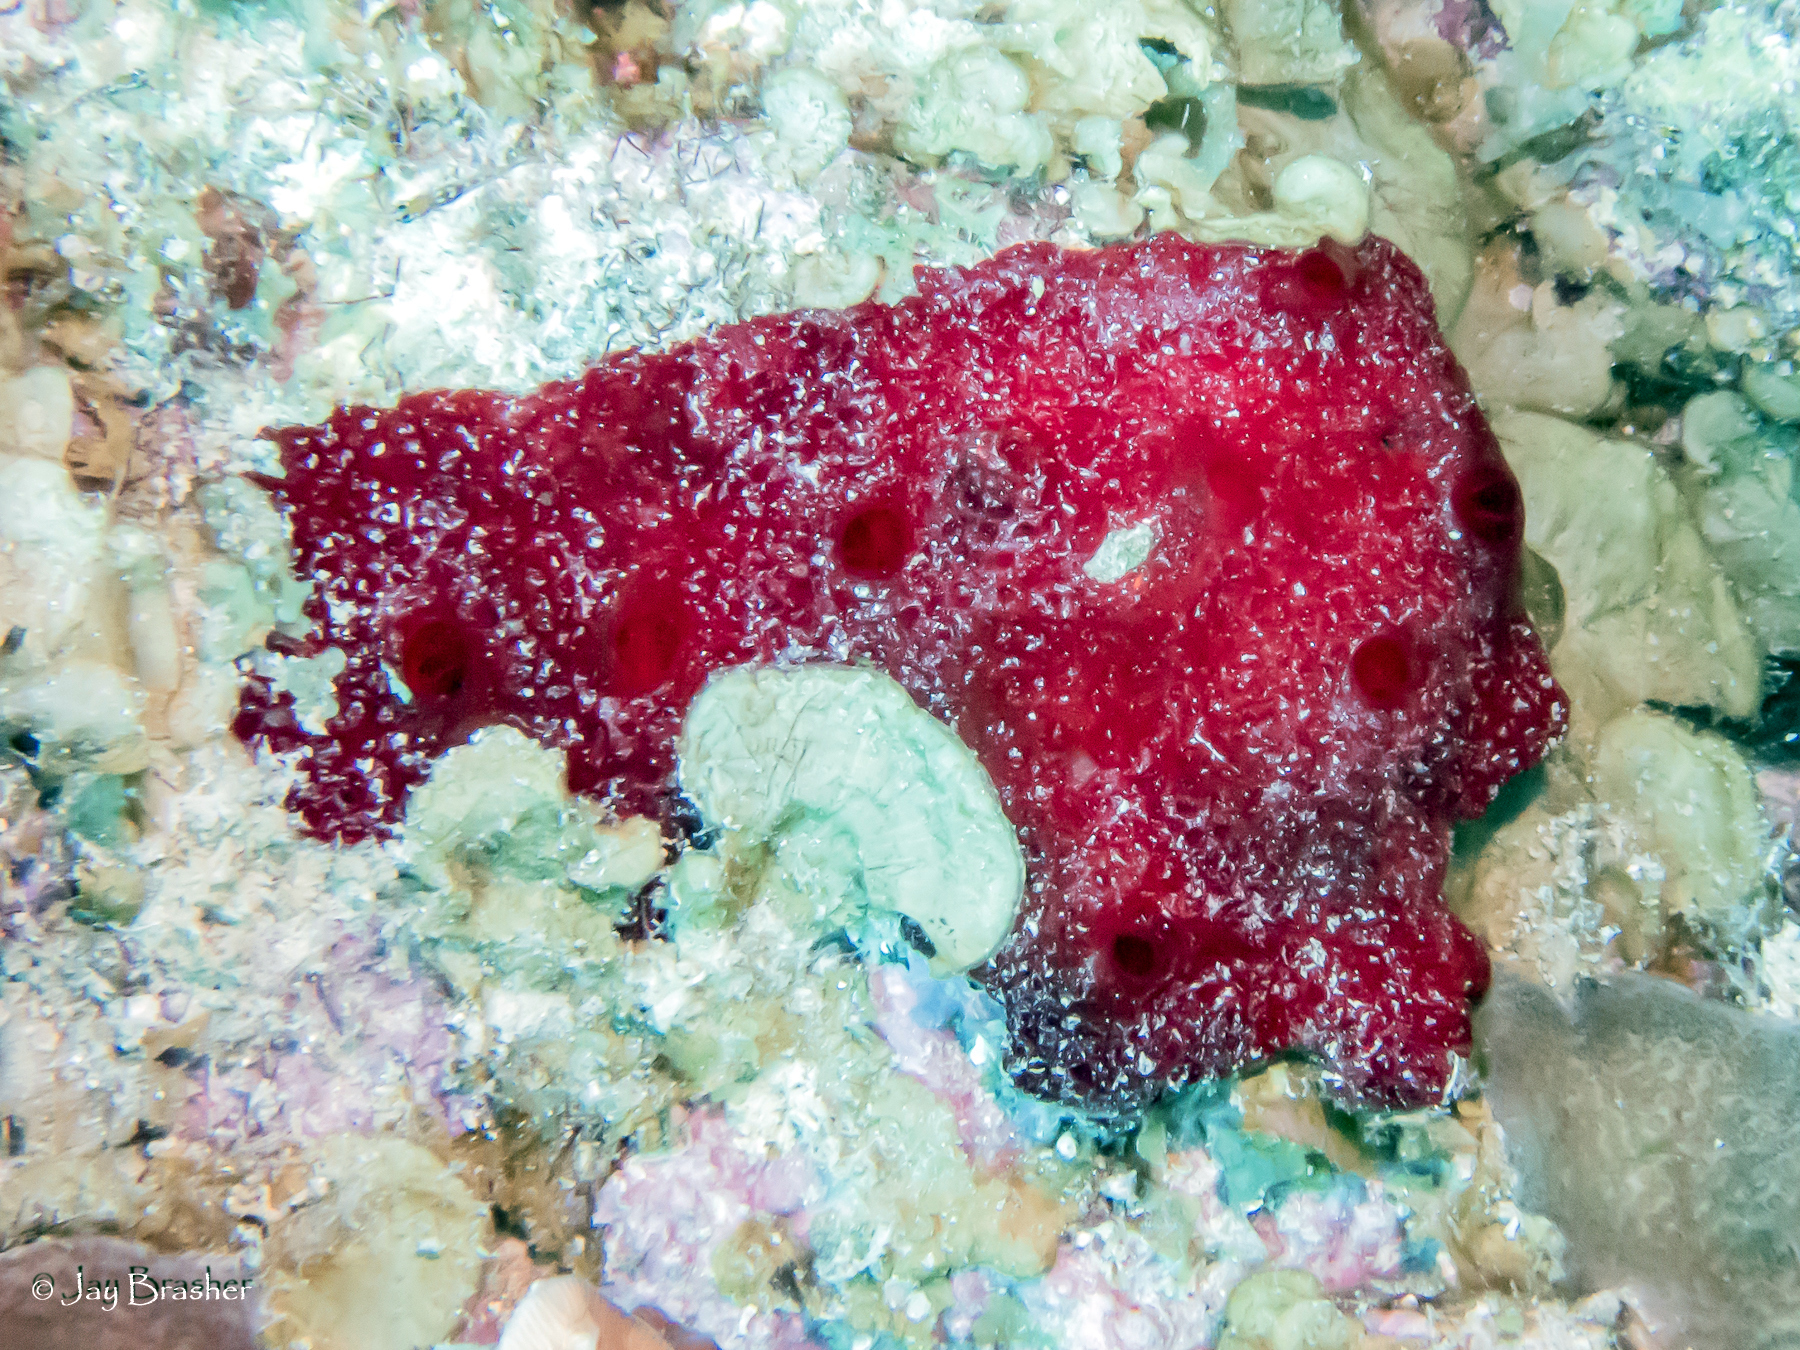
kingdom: Animalia
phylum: Porifera
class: Demospongiae
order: Poecilosclerida
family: Hymedesmiidae
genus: Phorbas
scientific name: Phorbas amaranthus
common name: Red sieve encrusting sponge
